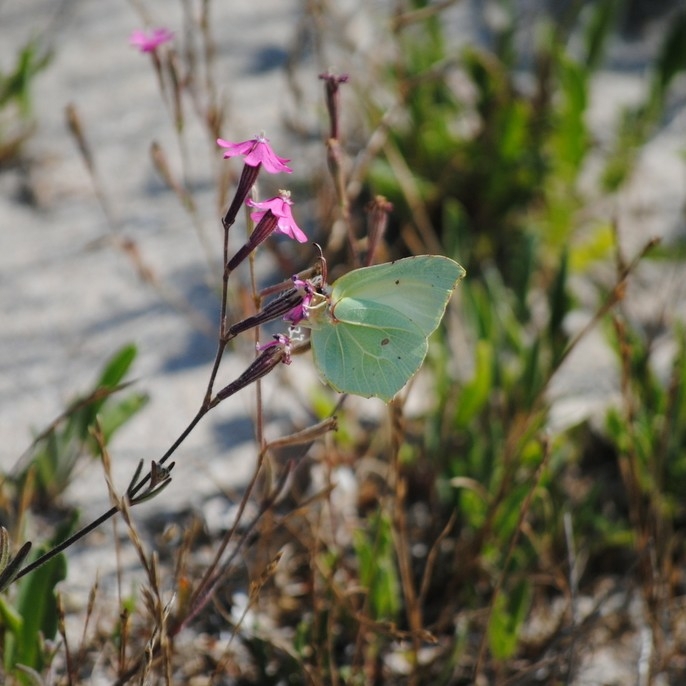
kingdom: Animalia
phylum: Arthropoda
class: Insecta
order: Lepidoptera
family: Pieridae
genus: Gonepteryx
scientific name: Gonepteryx rhamni
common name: Brimstone
